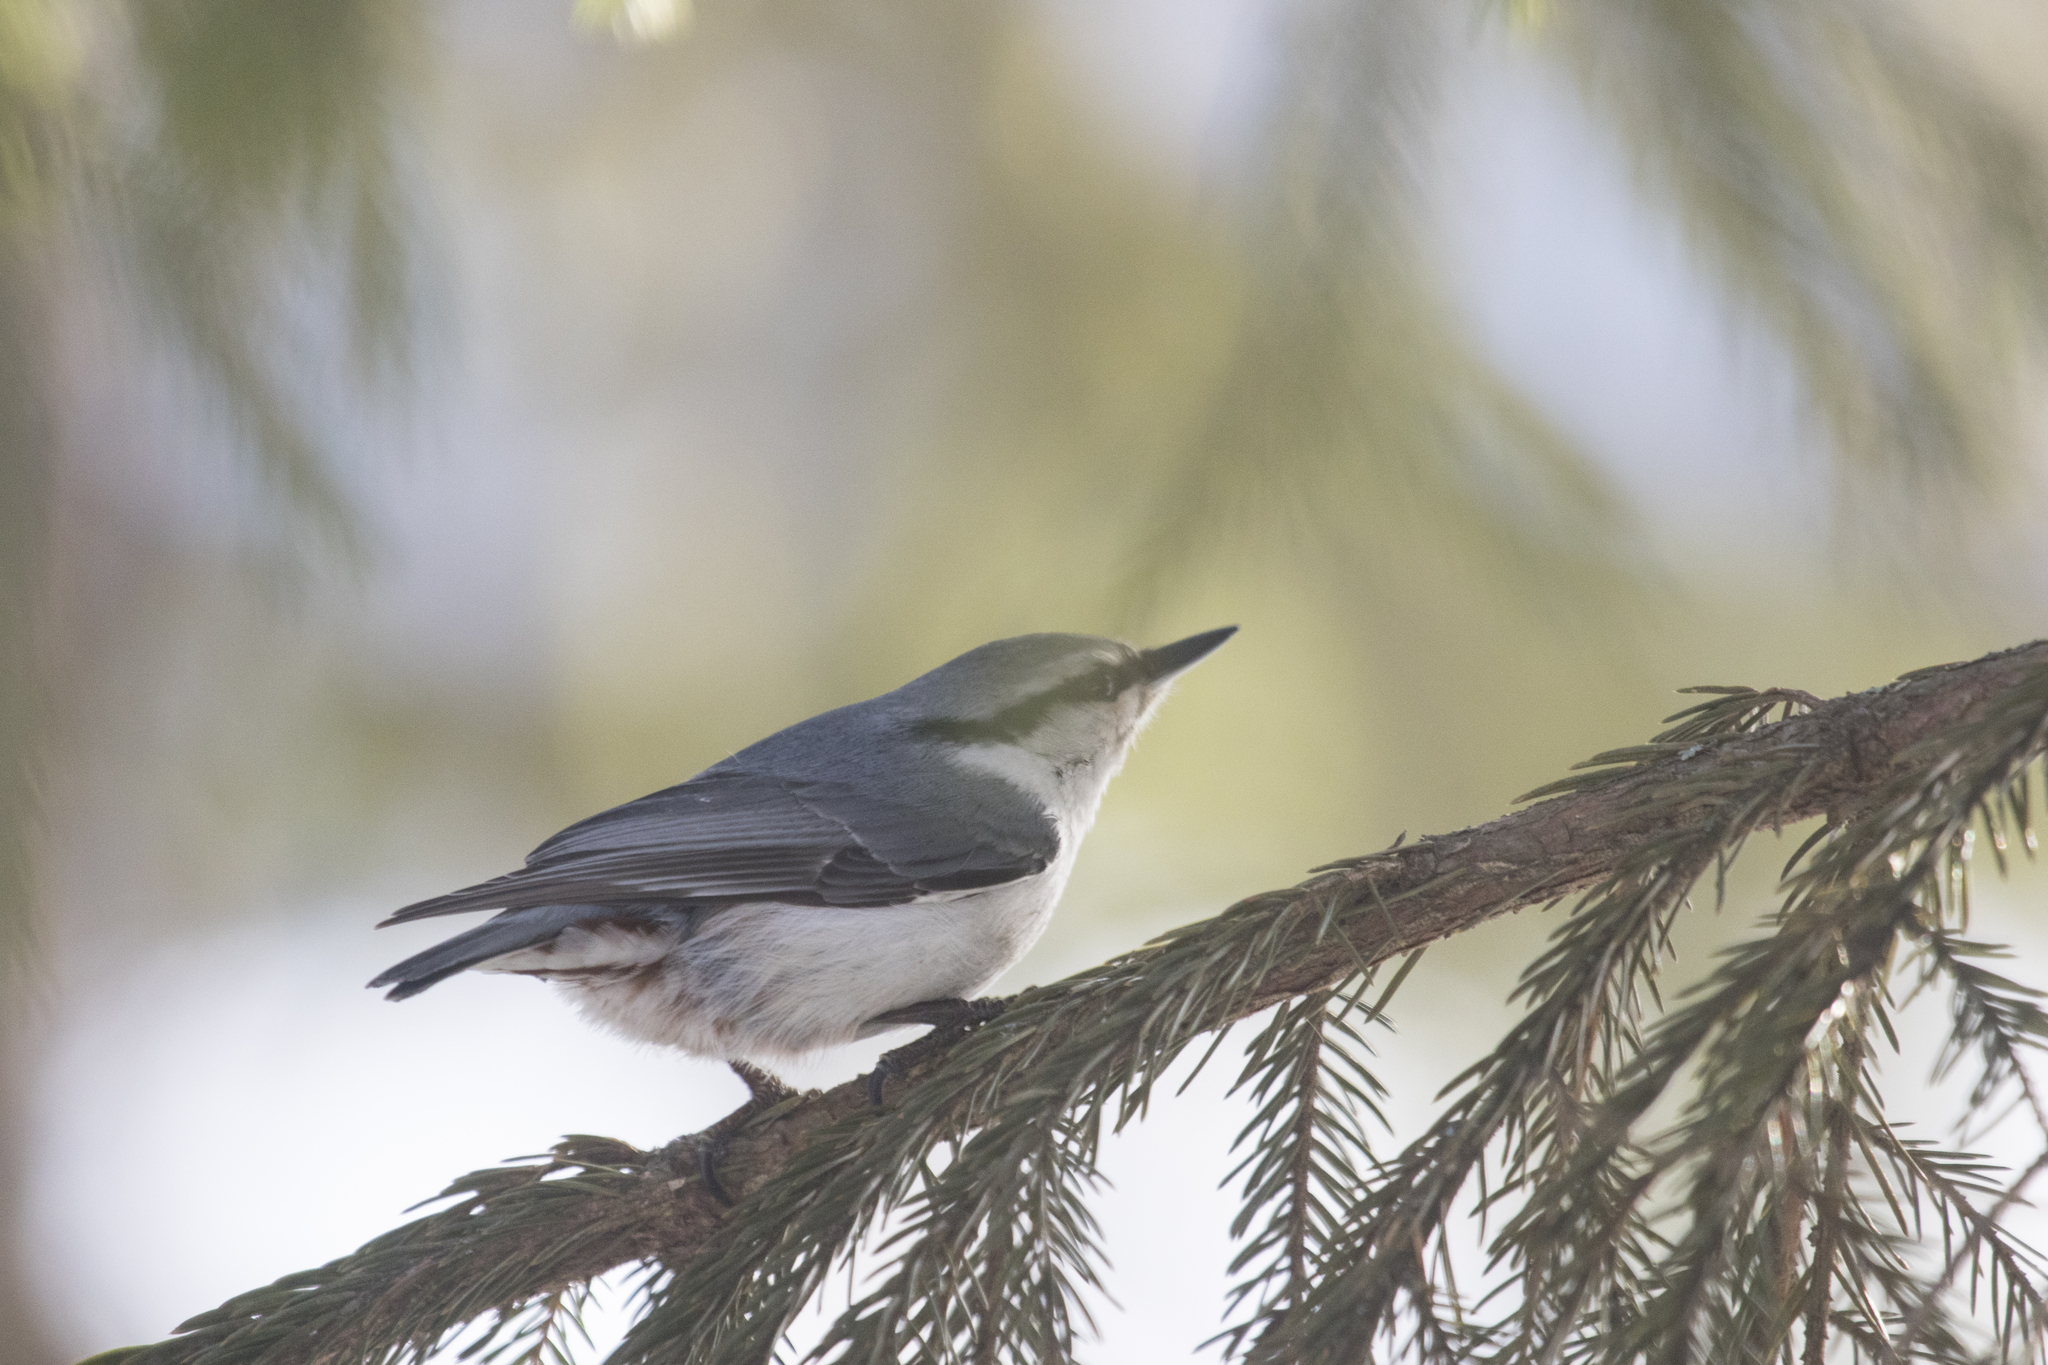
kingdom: Animalia
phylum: Chordata
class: Aves
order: Passeriformes
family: Sittidae
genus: Sitta
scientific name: Sitta europaea
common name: Eurasian nuthatch
